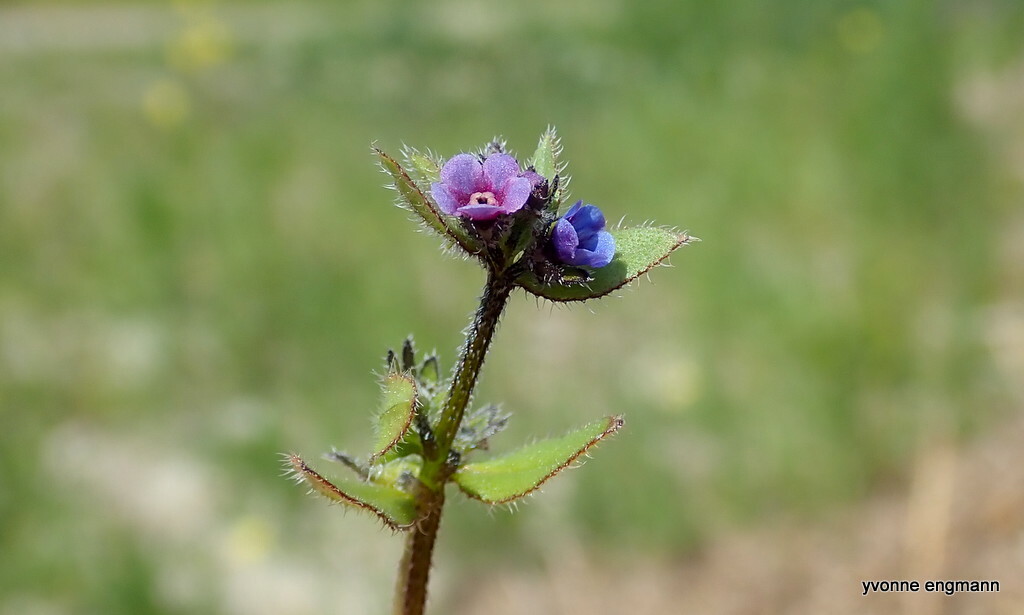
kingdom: Plantae
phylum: Tracheophyta
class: Magnoliopsida
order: Boraginales
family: Boraginaceae
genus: Asperugo
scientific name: Asperugo procumbens
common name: Madwort
